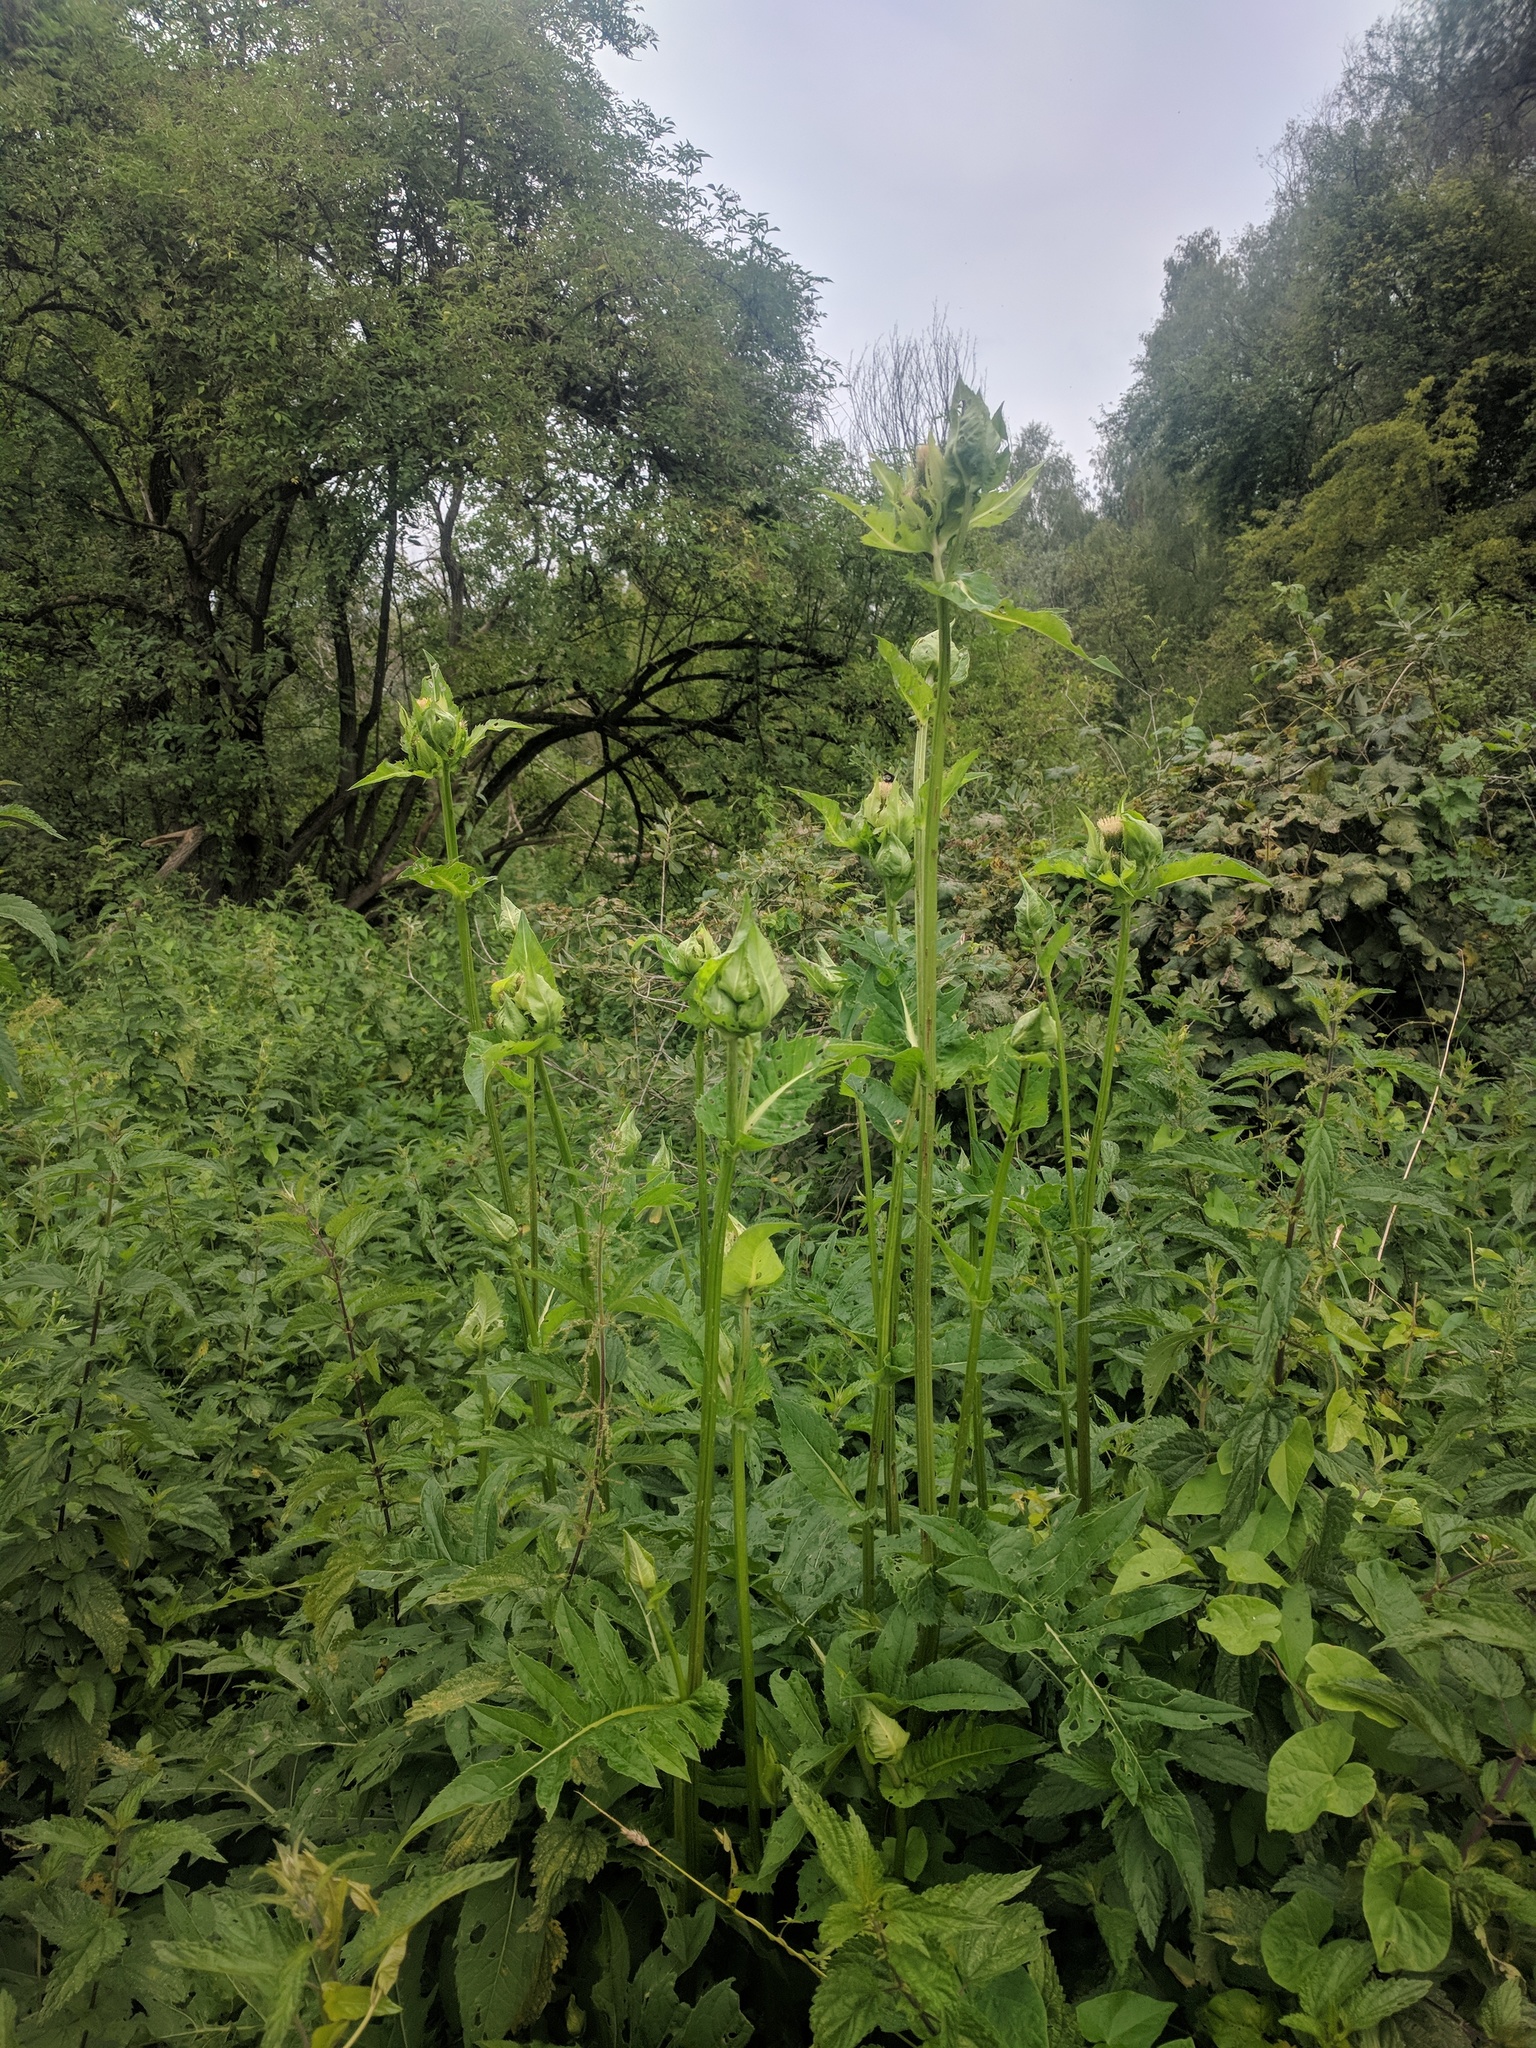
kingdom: Plantae
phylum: Tracheophyta
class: Magnoliopsida
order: Asterales
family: Asteraceae
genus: Cirsium
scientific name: Cirsium oleraceum
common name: Cabbage thistle
